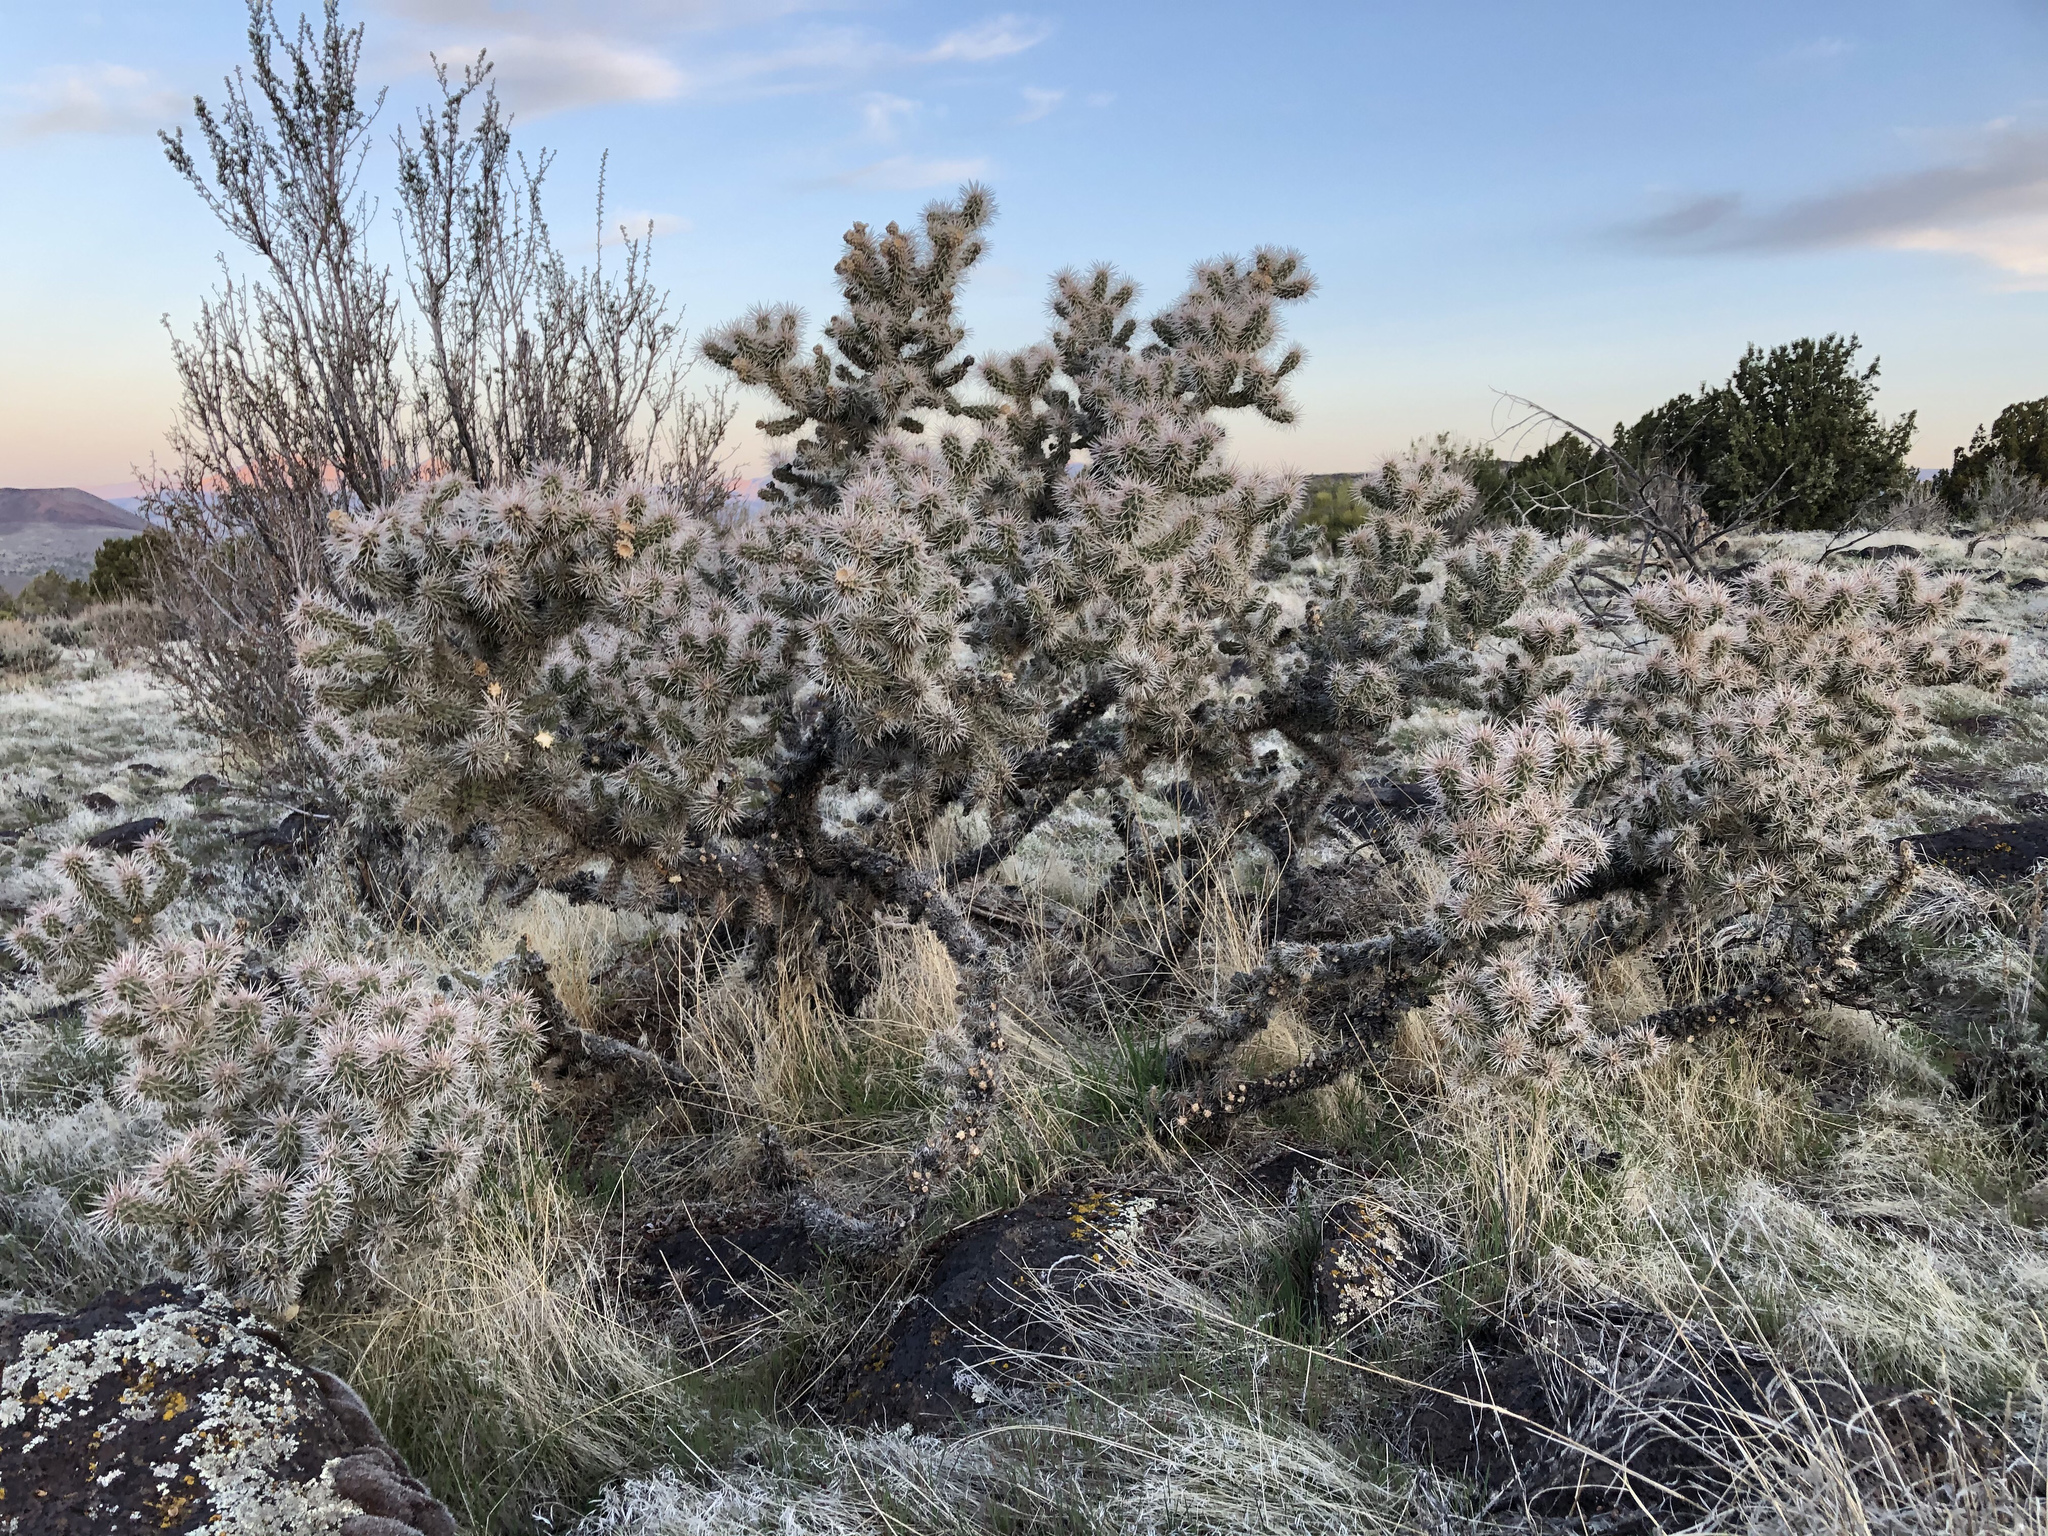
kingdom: Plantae
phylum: Tracheophyta
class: Magnoliopsida
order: Caryophyllales
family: Cactaceae
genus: Cylindropuntia
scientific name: Cylindropuntia whipplei
